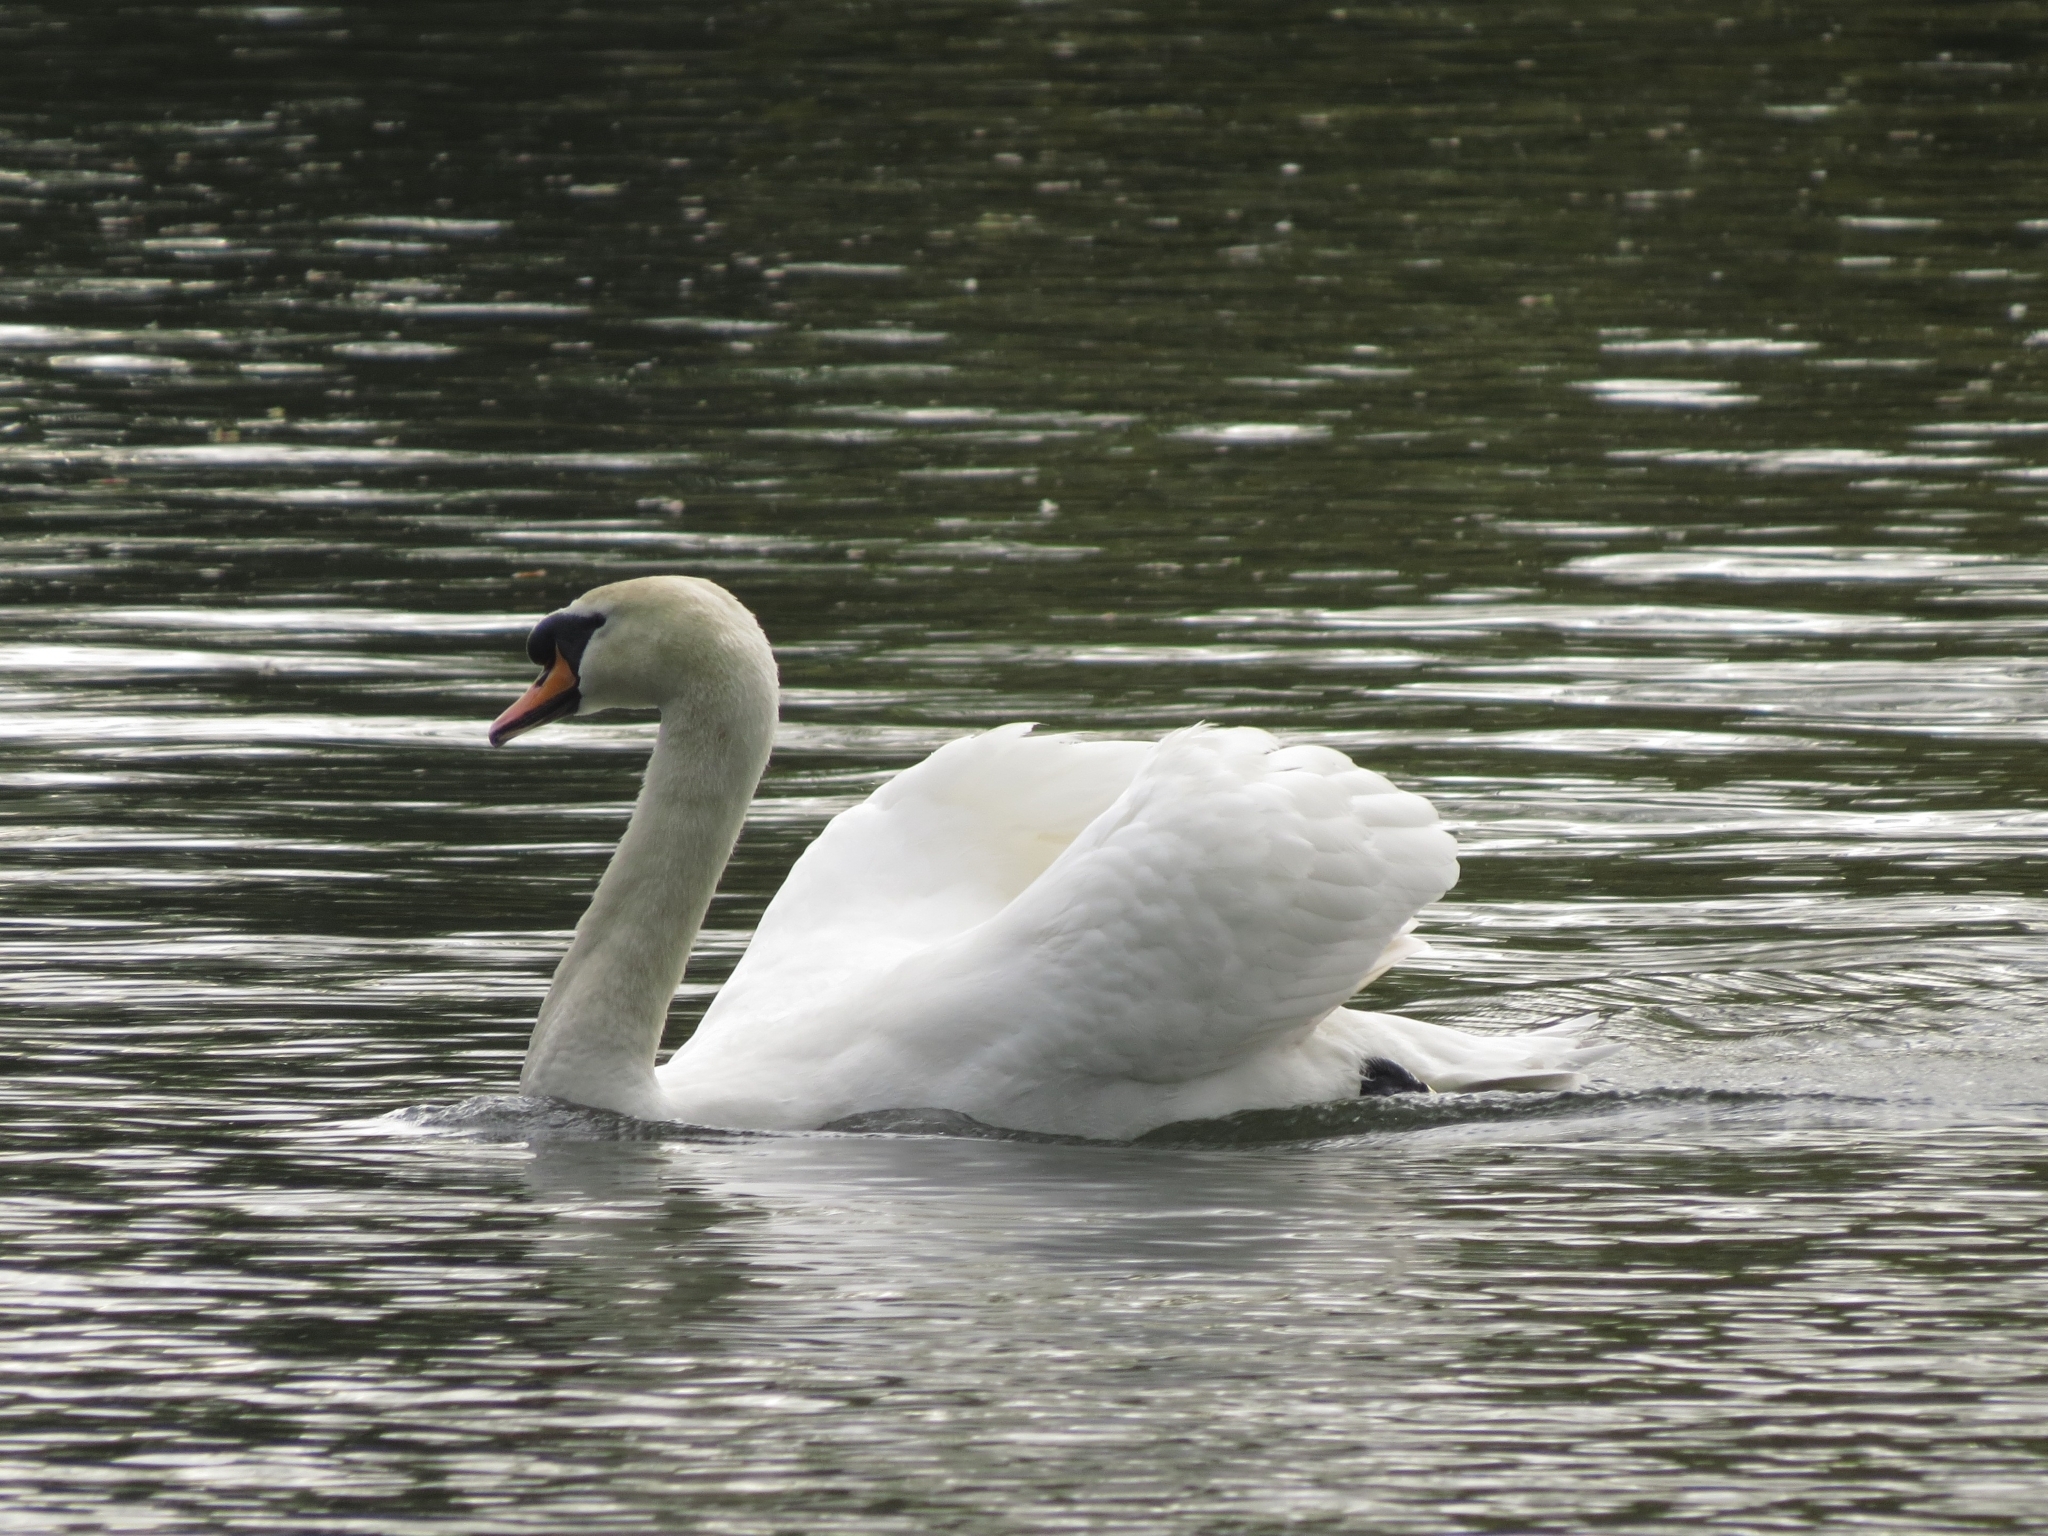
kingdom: Animalia
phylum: Chordata
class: Aves
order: Anseriformes
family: Anatidae
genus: Cygnus
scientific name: Cygnus olor
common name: Mute swan
